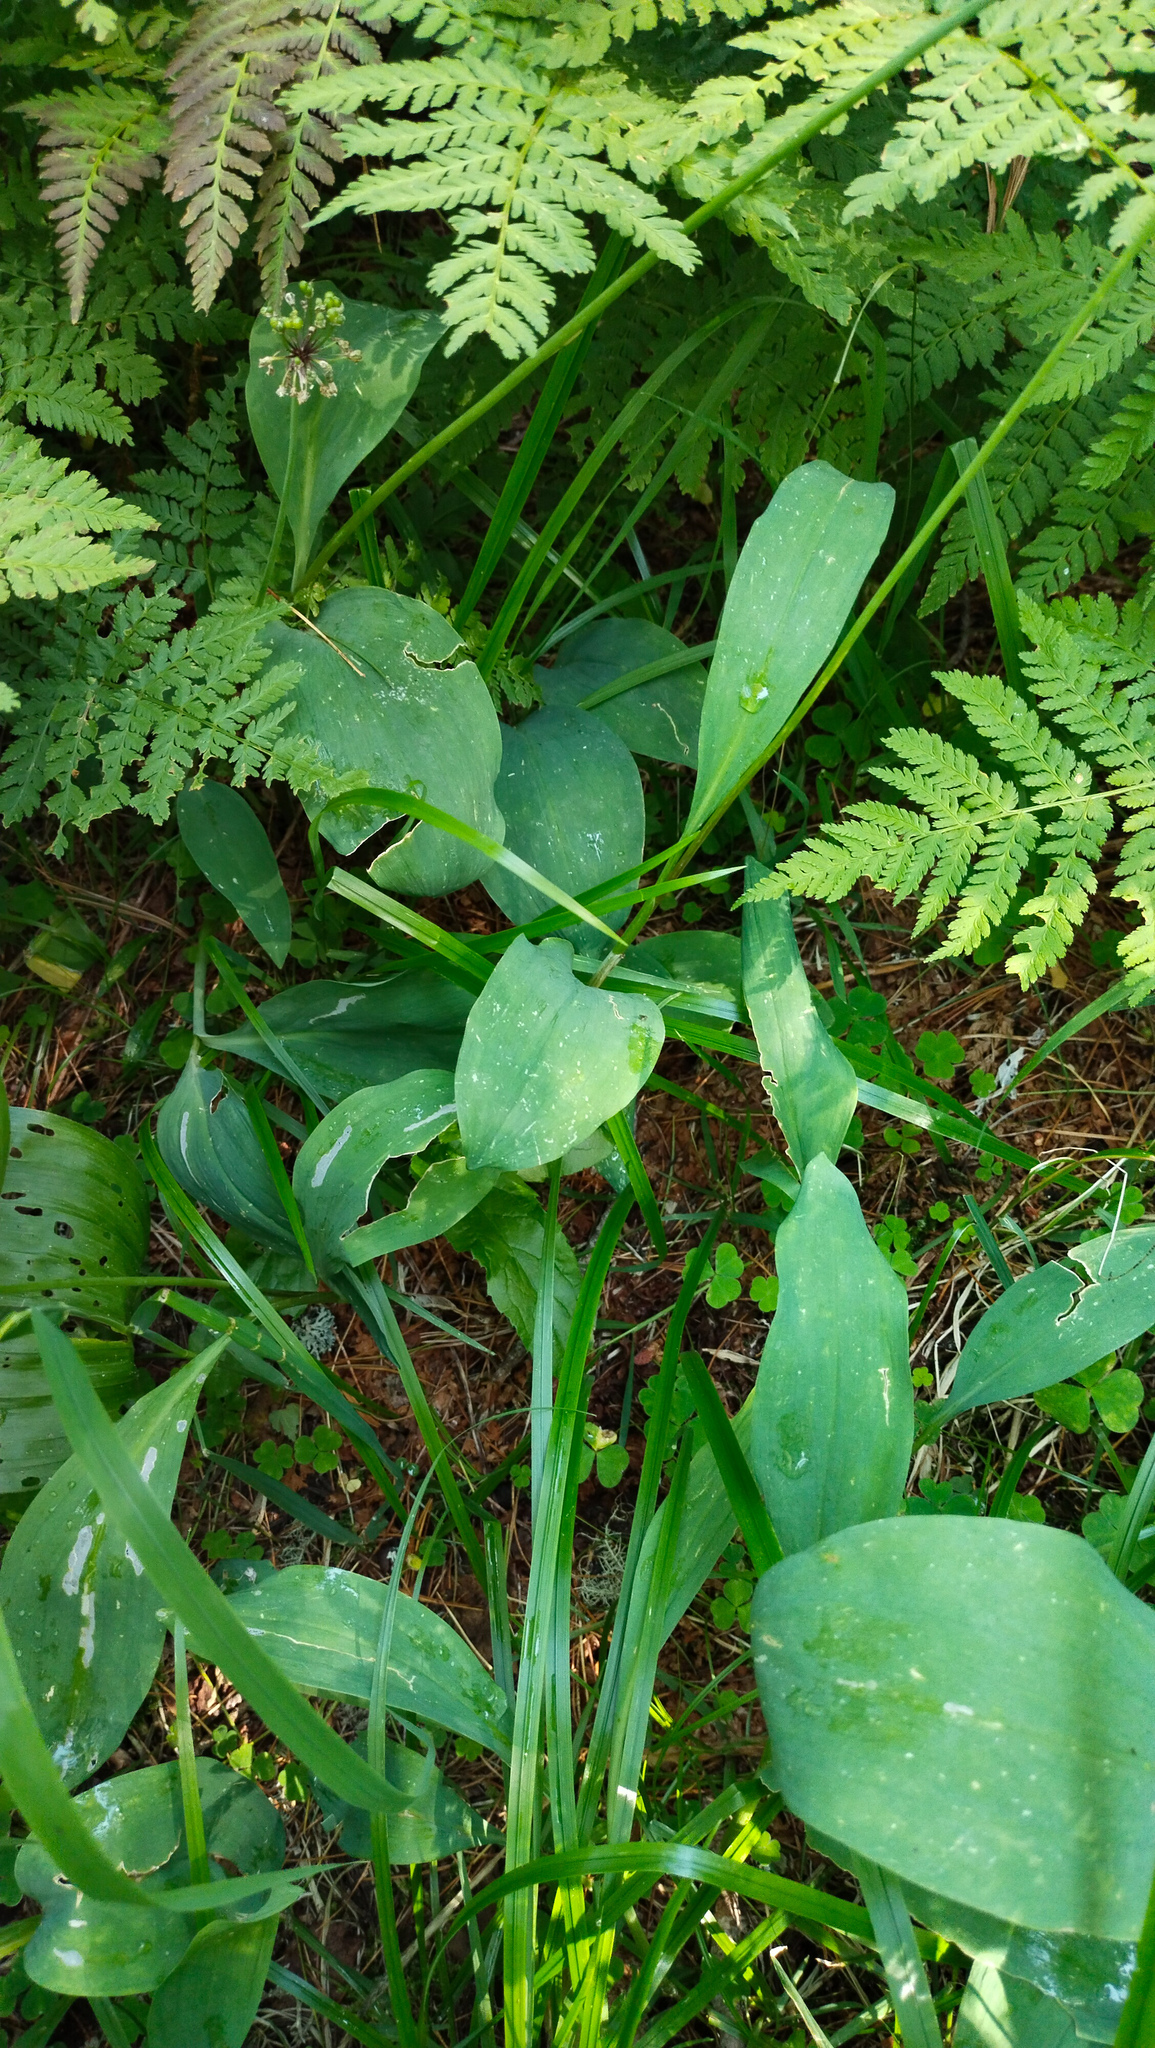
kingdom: Plantae
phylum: Tracheophyta
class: Liliopsida
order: Asparagales
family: Amaryllidaceae
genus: Allium
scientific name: Allium microdictyon
